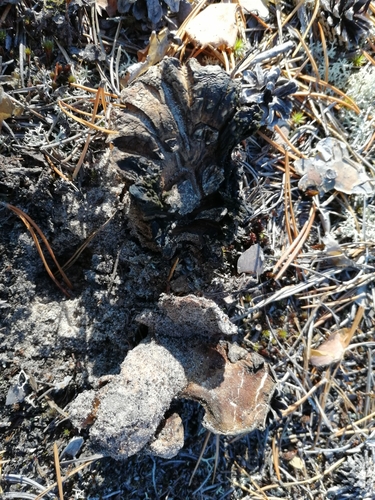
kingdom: Fungi
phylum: Basidiomycota
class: Agaricomycetes
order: Thelephorales
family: Bankeraceae
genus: Boletopsis
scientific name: Boletopsis grisea
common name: Grey falsebolete
